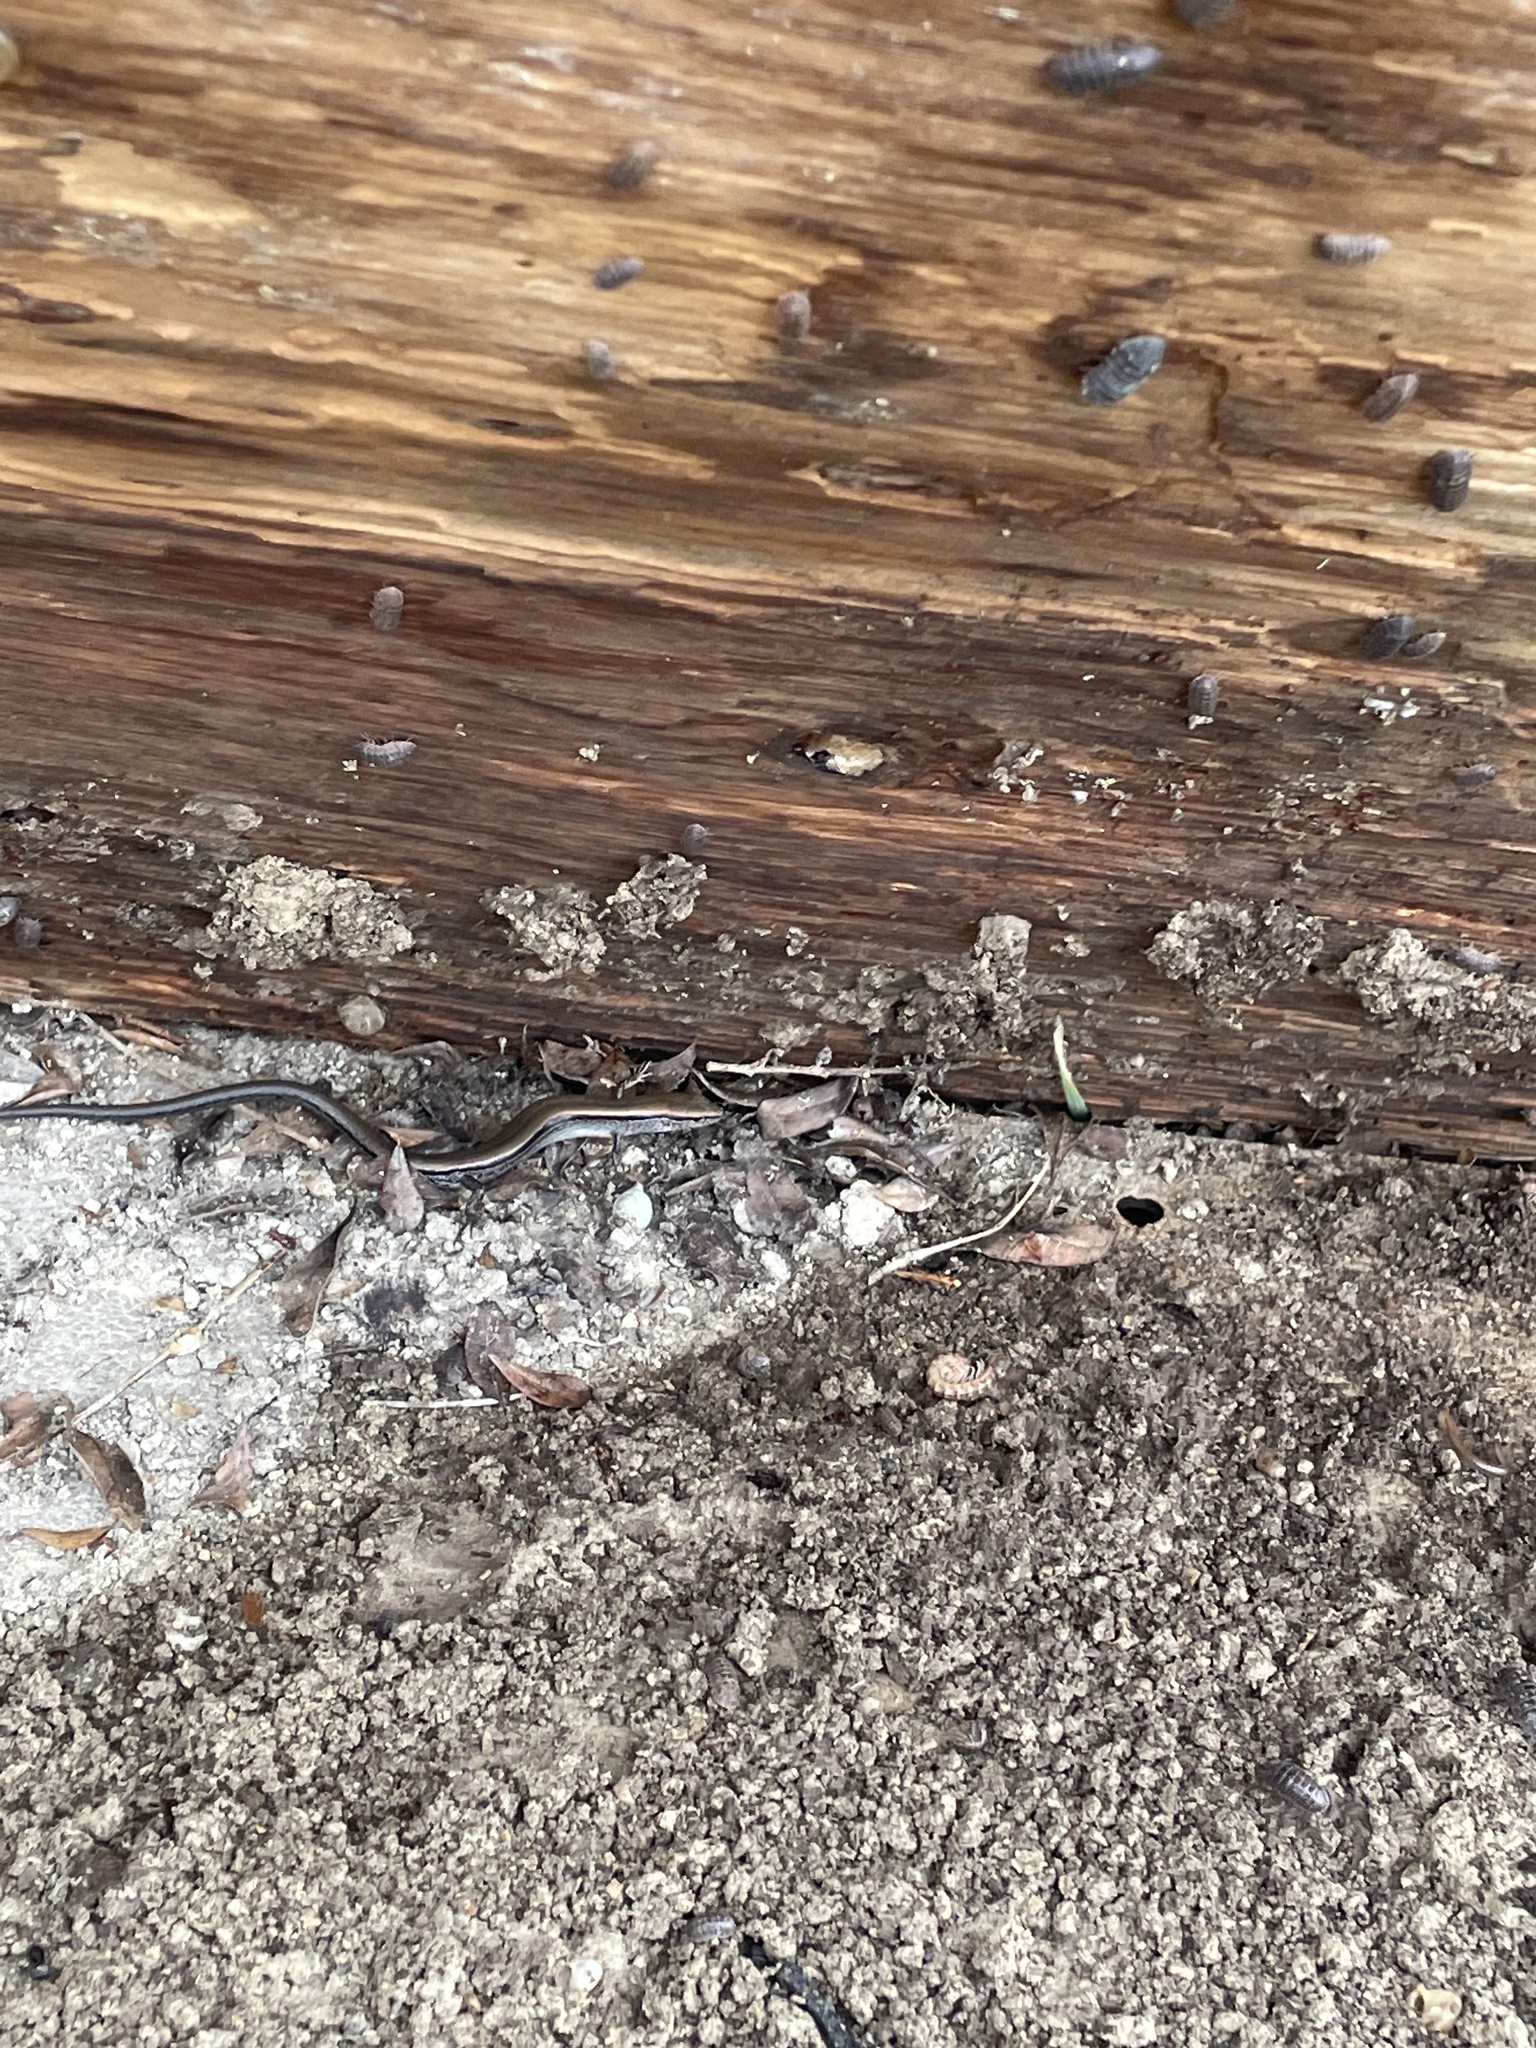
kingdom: Animalia
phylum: Chordata
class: Squamata
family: Scincidae
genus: Scincella
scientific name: Scincella lateralis
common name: Ground skink
